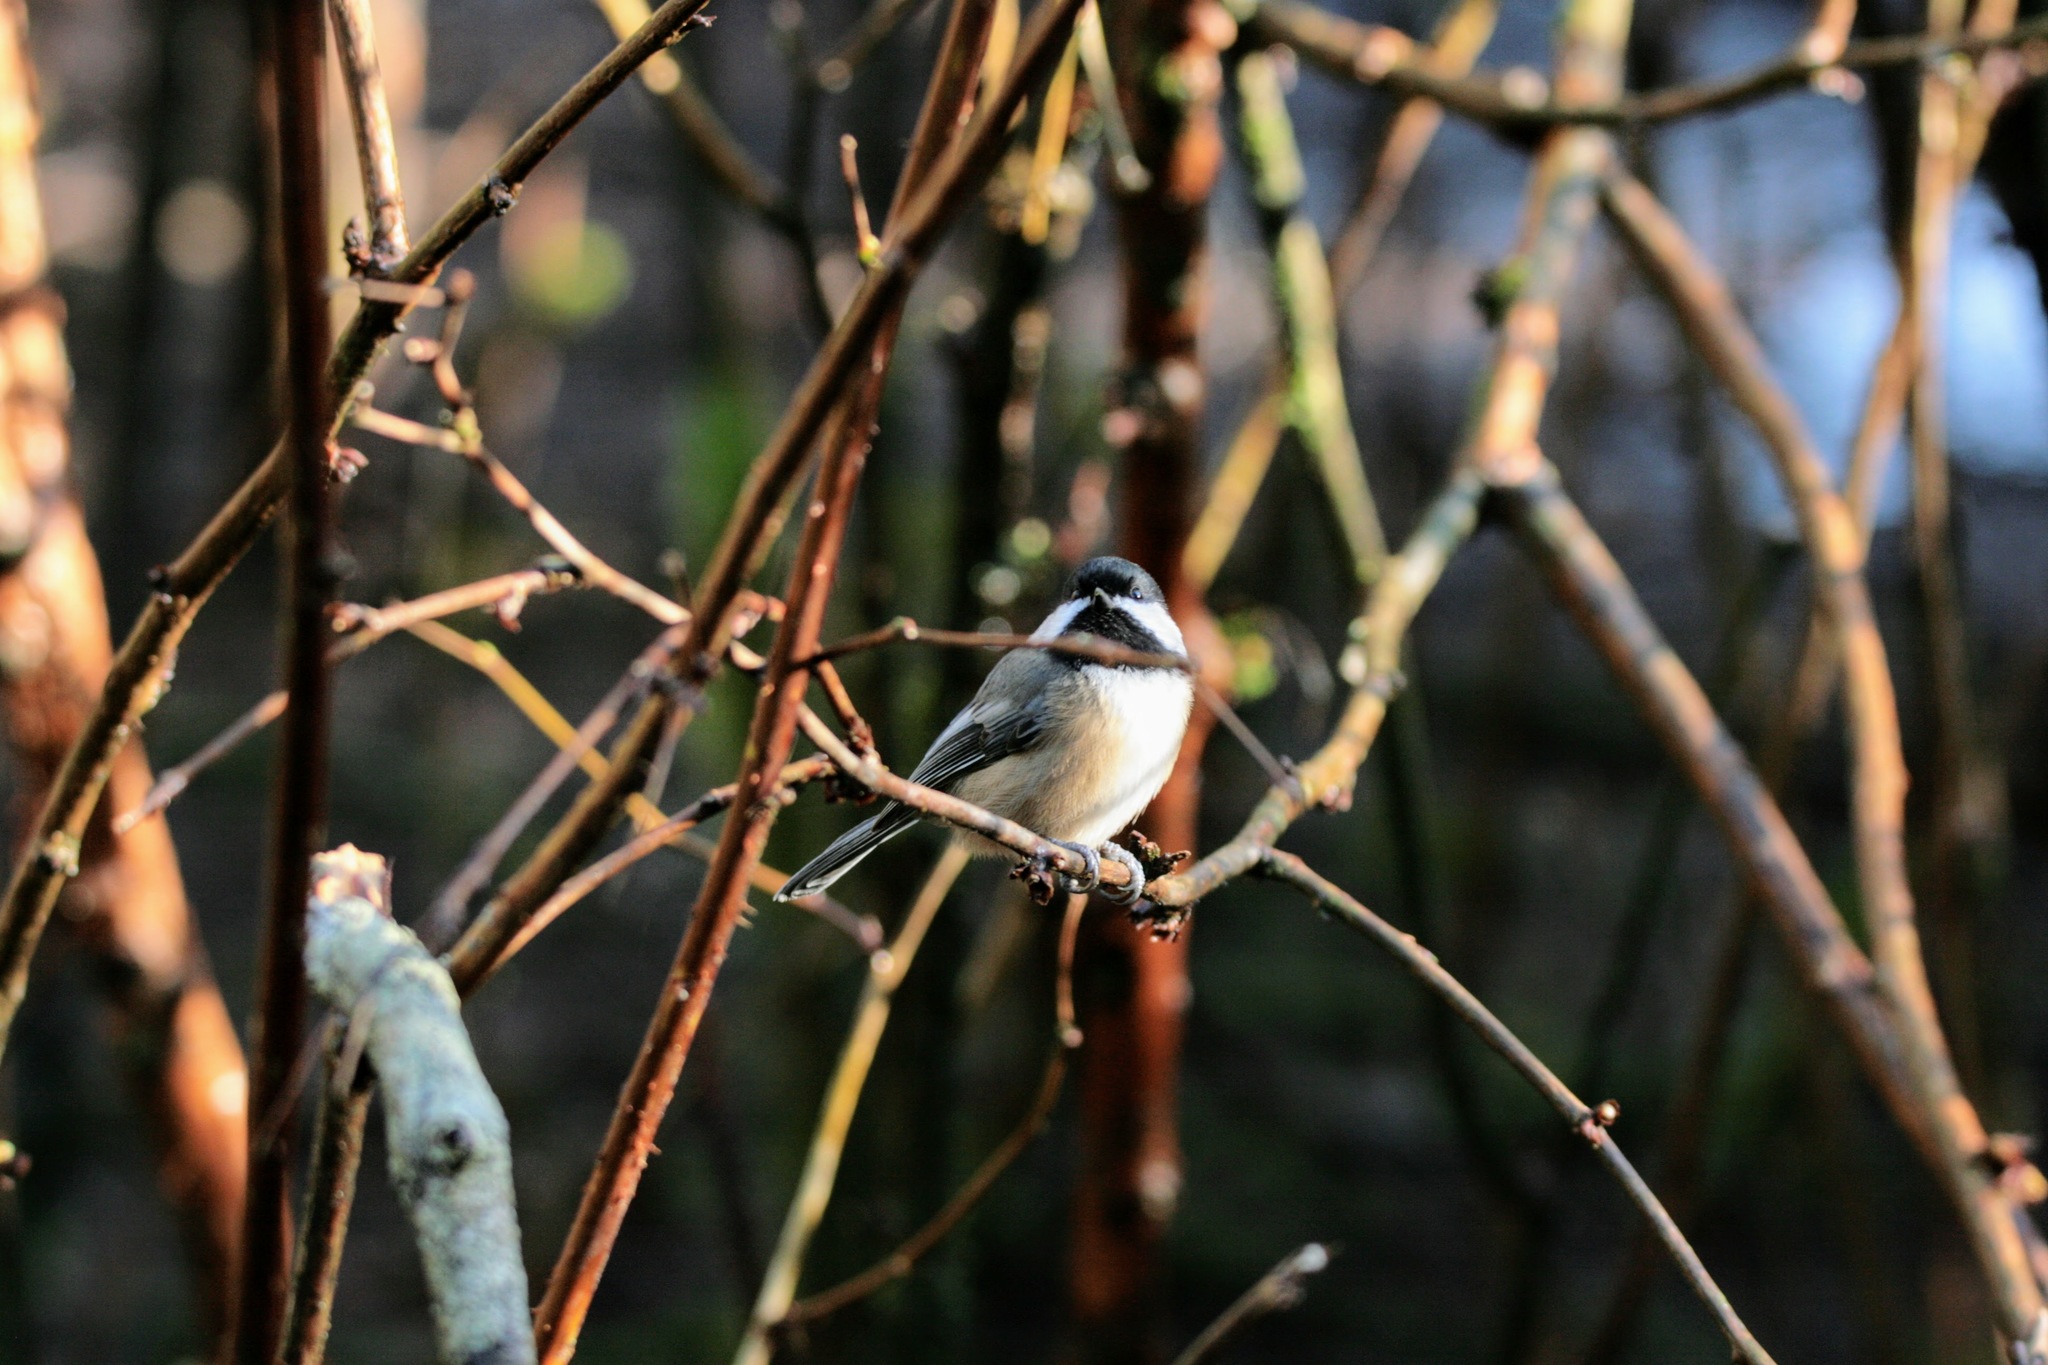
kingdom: Animalia
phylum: Chordata
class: Aves
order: Passeriformes
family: Paridae
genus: Poecile
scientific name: Poecile atricapillus
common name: Black-capped chickadee
